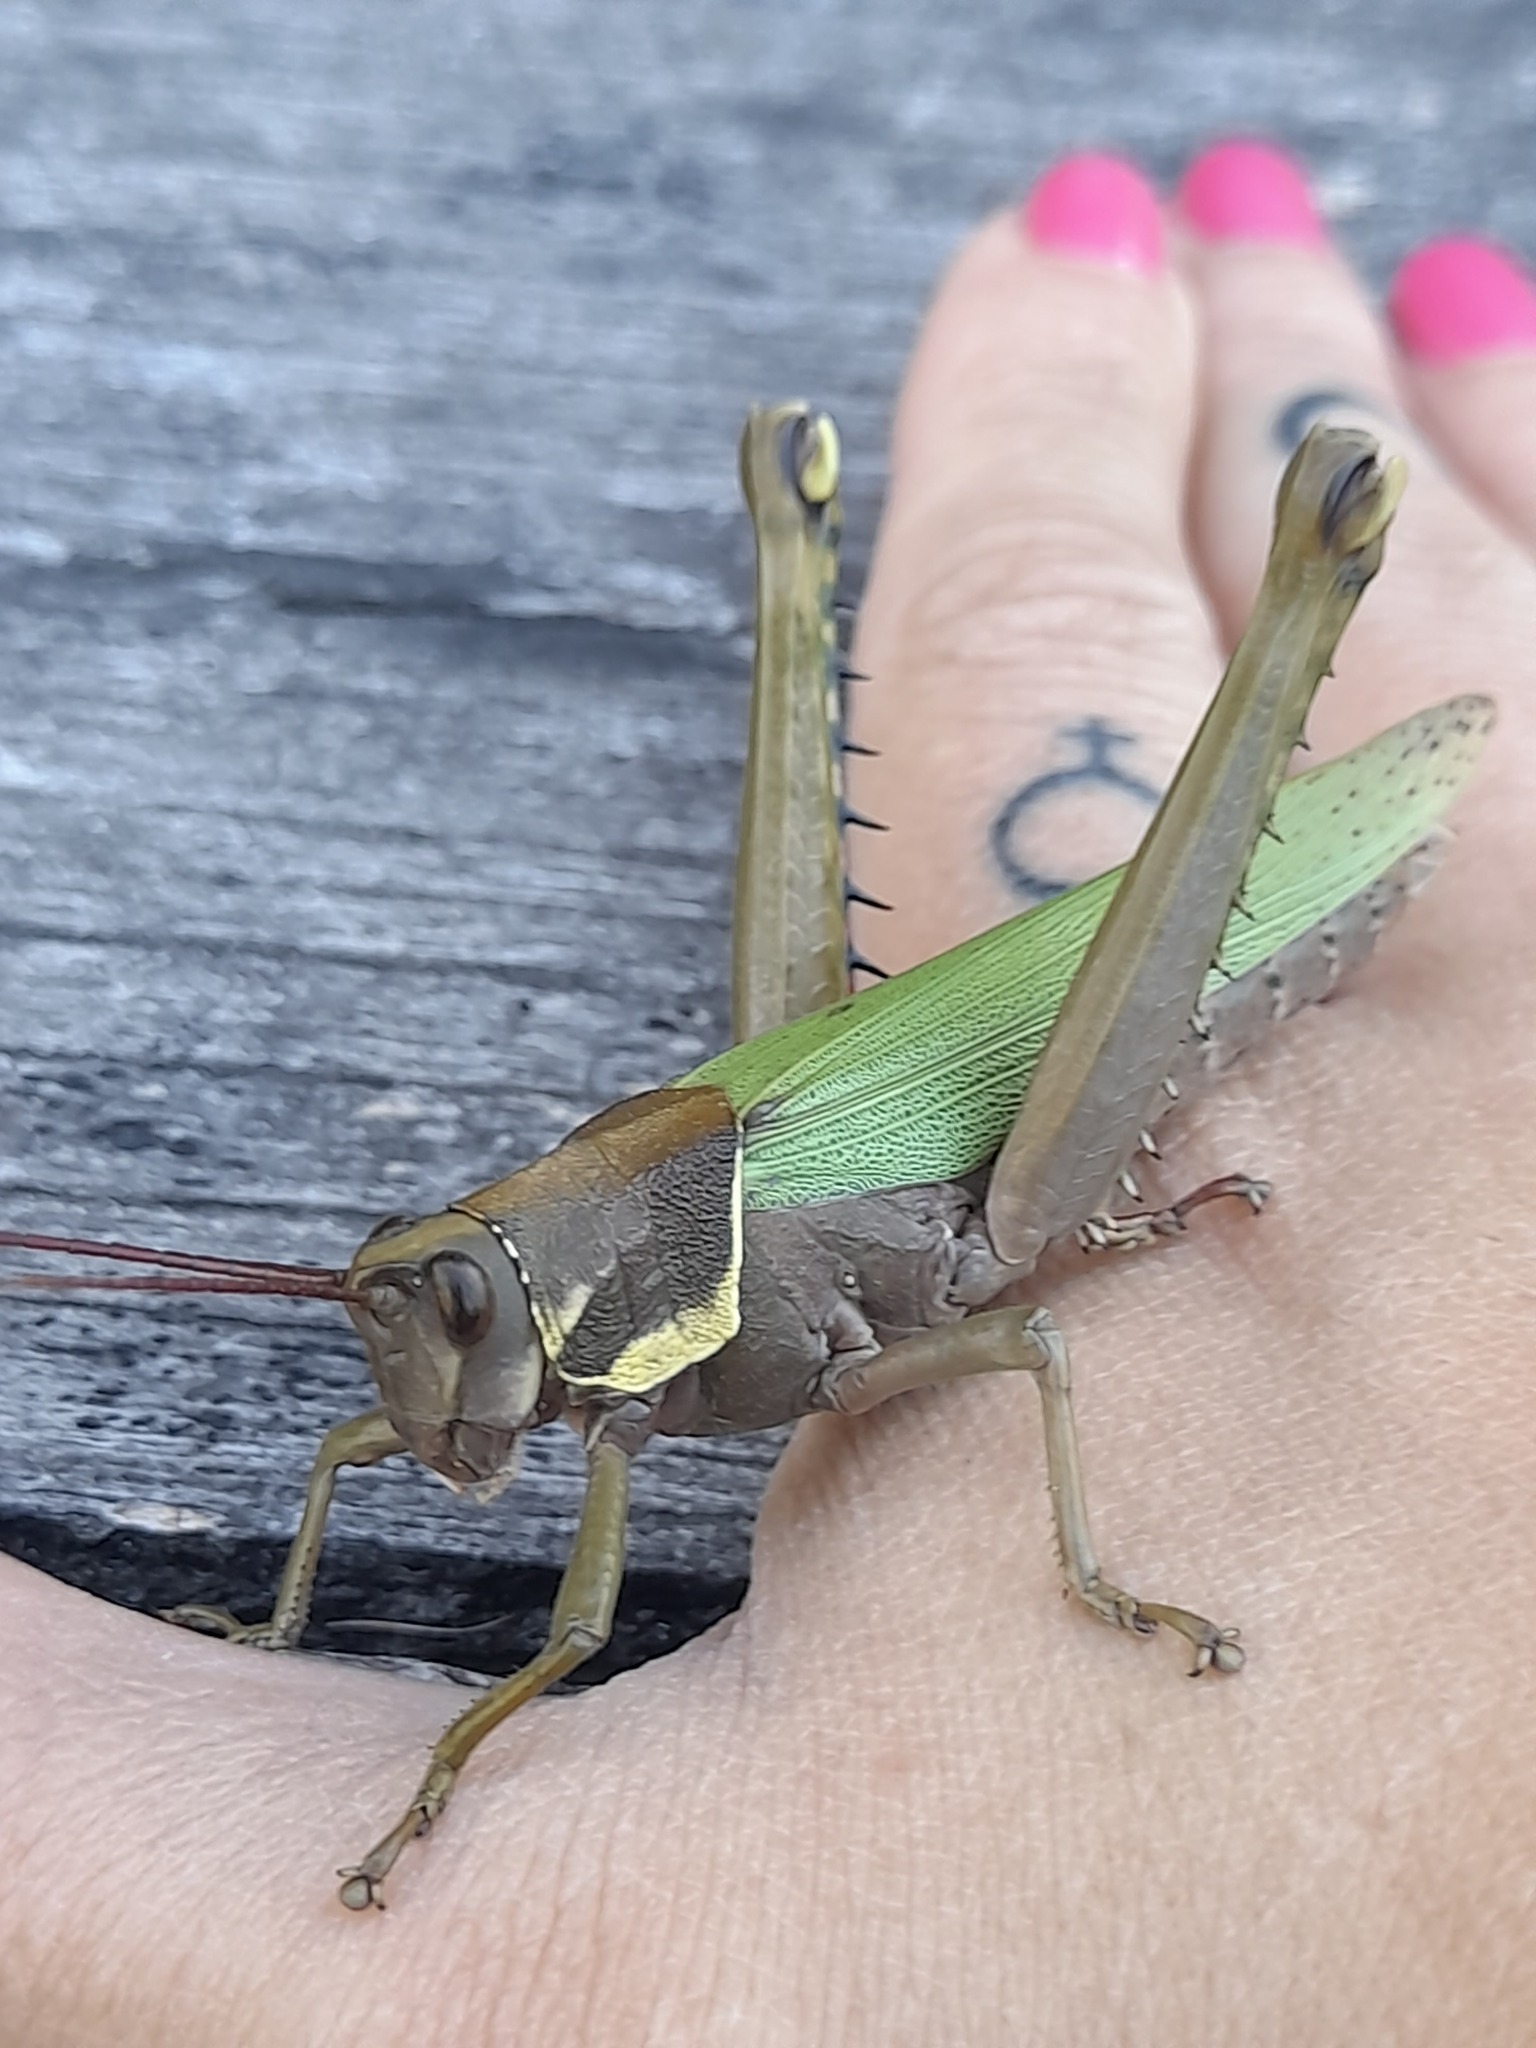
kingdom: Animalia
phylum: Arthropoda
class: Insecta
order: Orthoptera
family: Romaleidae
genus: Coryacris
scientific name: Coryacris angustipennis
